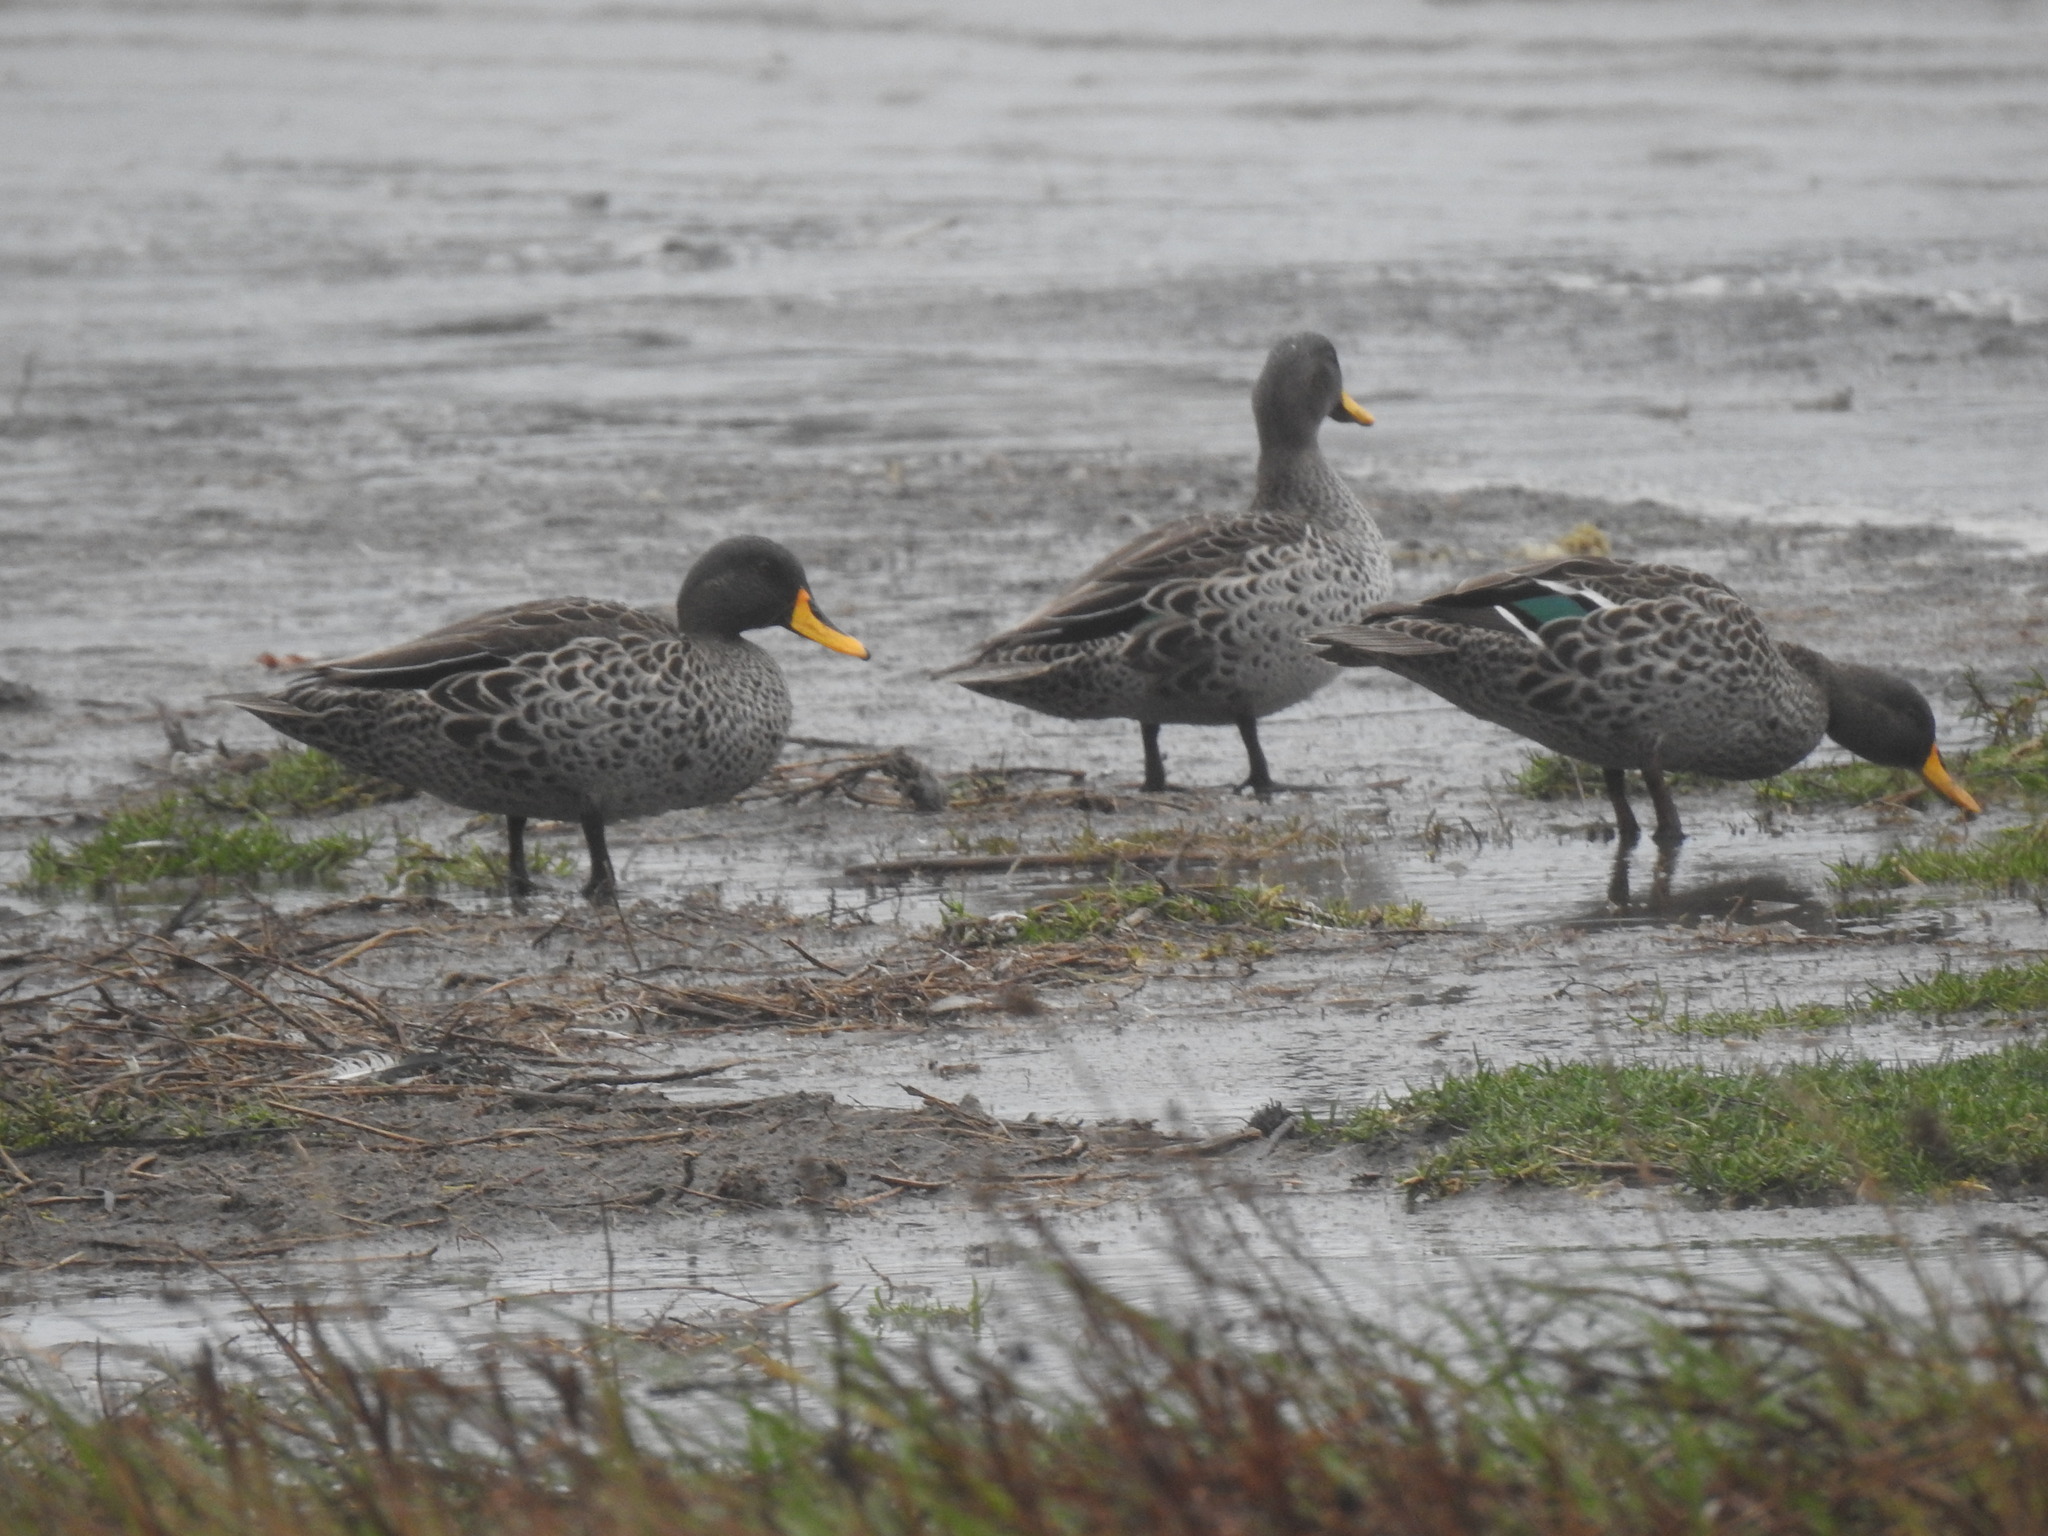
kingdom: Animalia
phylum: Chordata
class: Aves
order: Anseriformes
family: Anatidae
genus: Anas
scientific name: Anas undulata
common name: Yellow-billed duck
